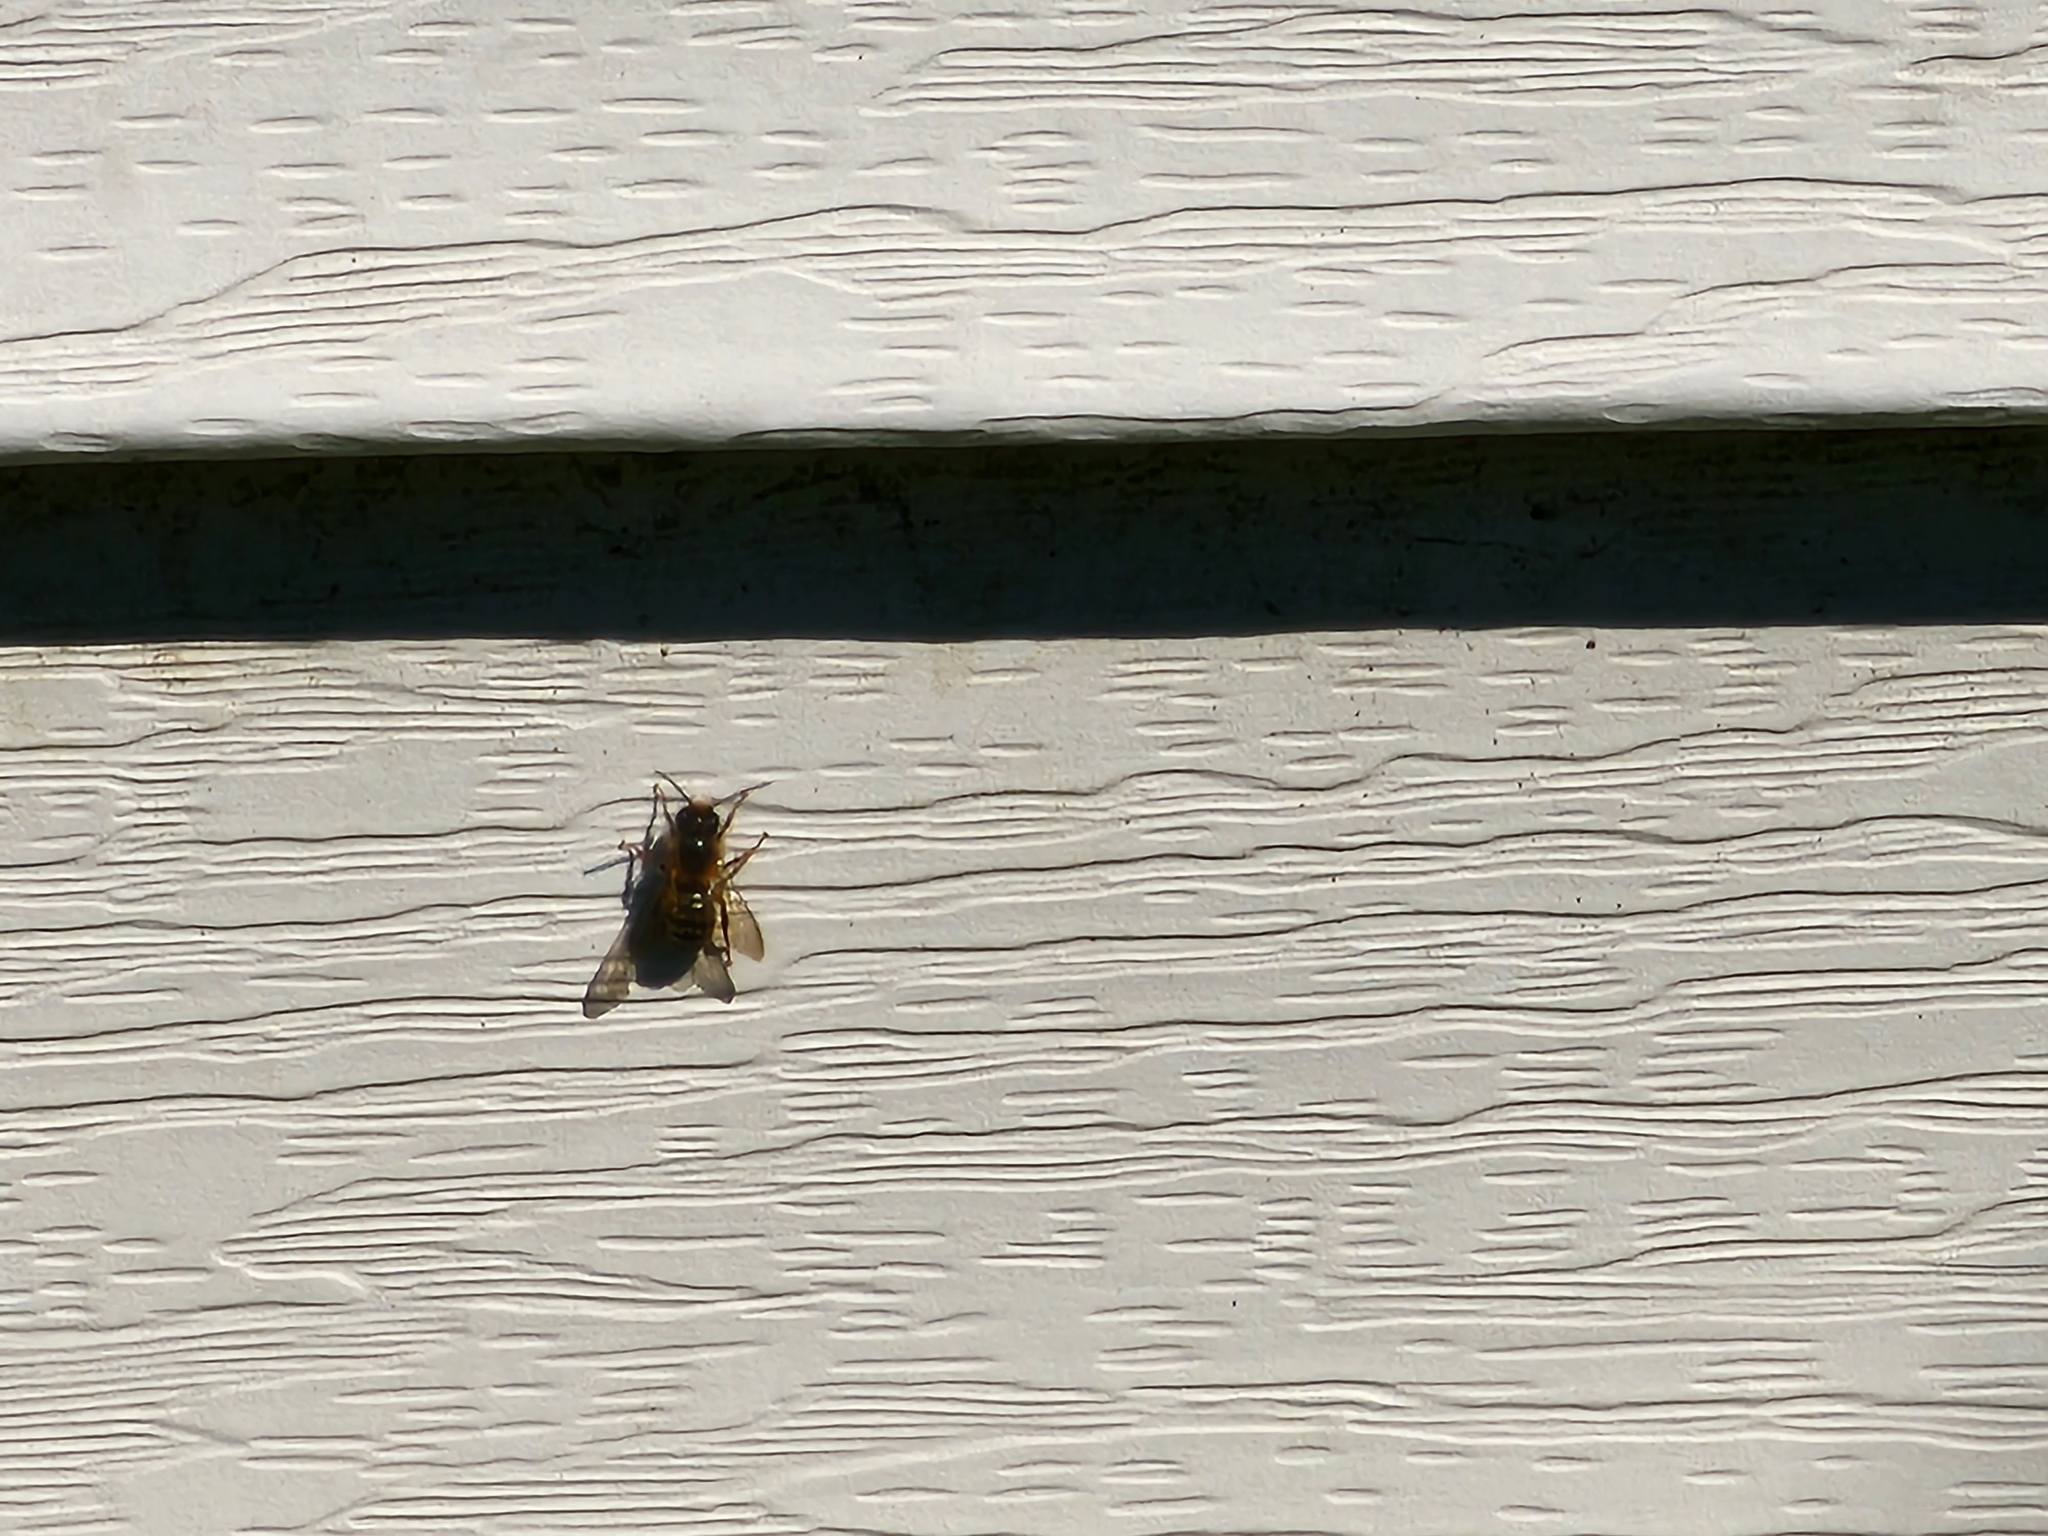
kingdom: Animalia
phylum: Arthropoda
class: Insecta
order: Hymenoptera
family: Megachilidae
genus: Osmia
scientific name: Osmia taurus
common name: Taurus mason bee
